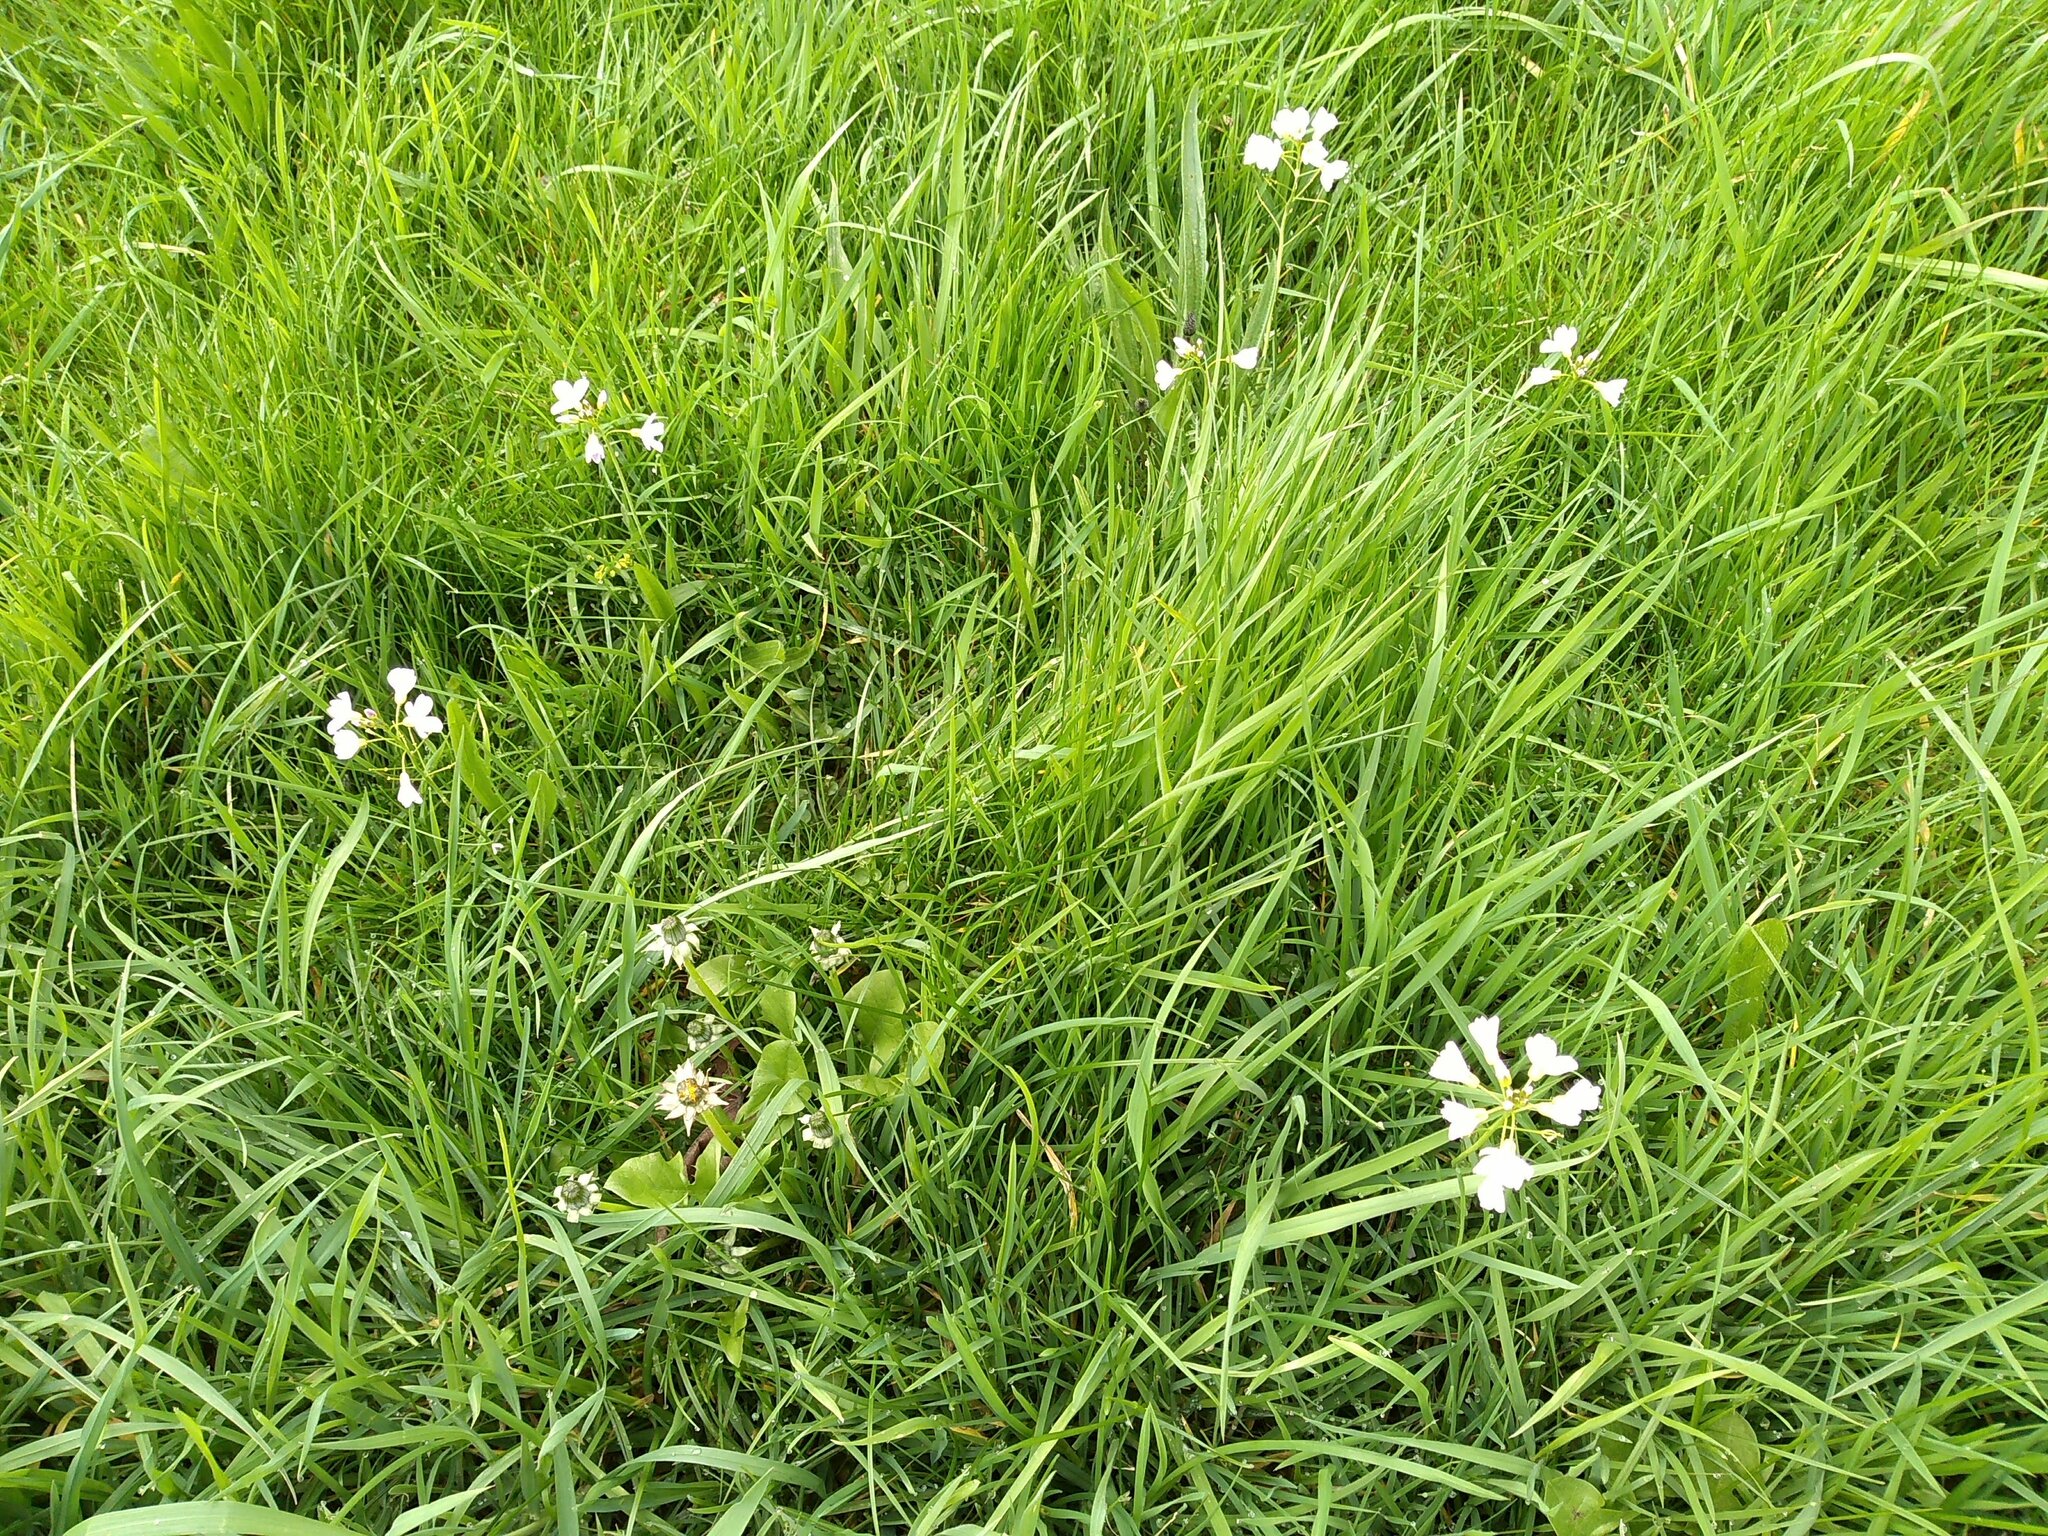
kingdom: Plantae
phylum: Tracheophyta
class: Magnoliopsida
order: Brassicales
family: Brassicaceae
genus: Cardamine
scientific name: Cardamine pratensis
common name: Cuckoo flower
